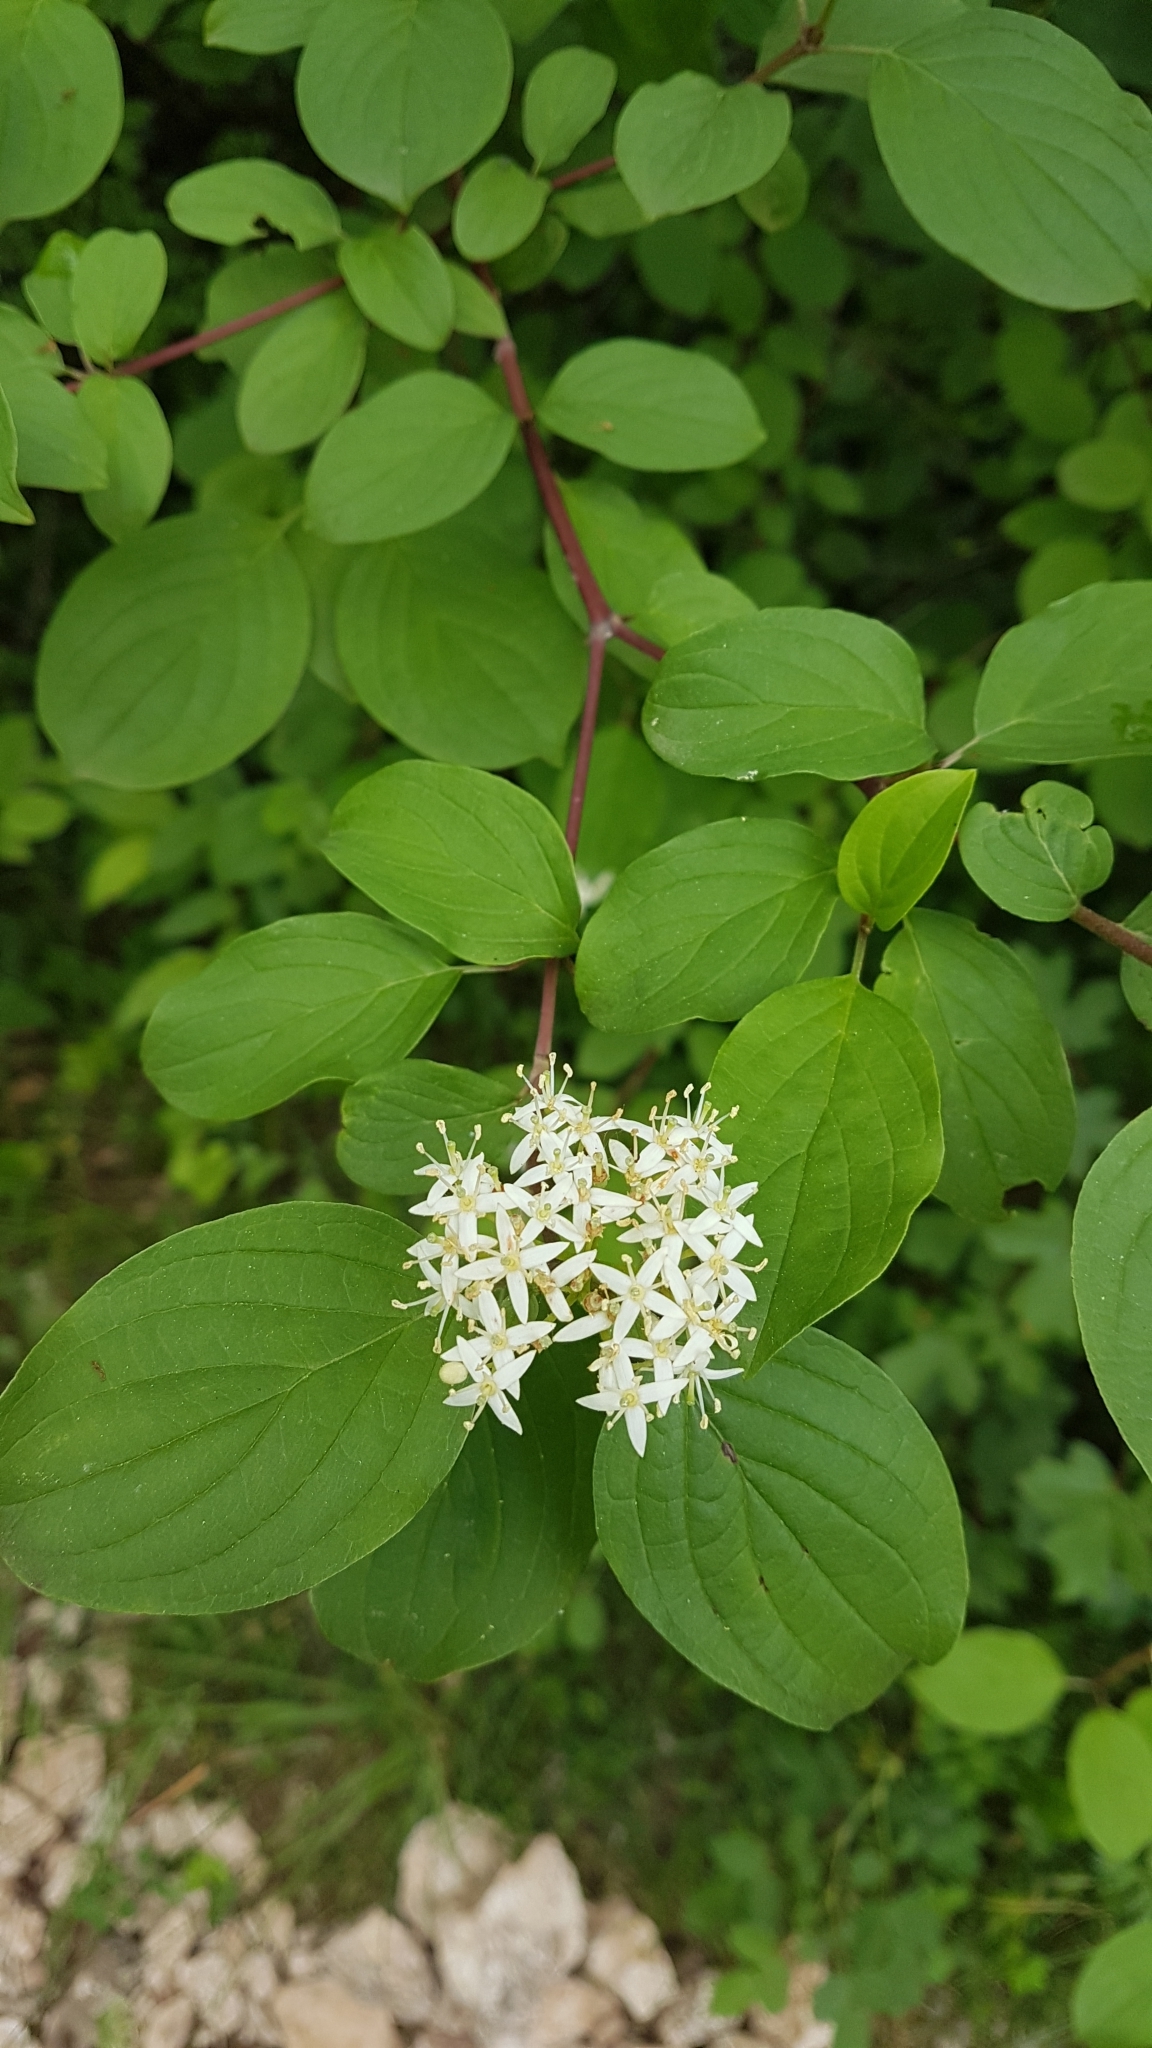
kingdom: Plantae
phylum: Tracheophyta
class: Magnoliopsida
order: Cornales
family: Cornaceae
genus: Cornus
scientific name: Cornus sanguinea
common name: Dogwood
